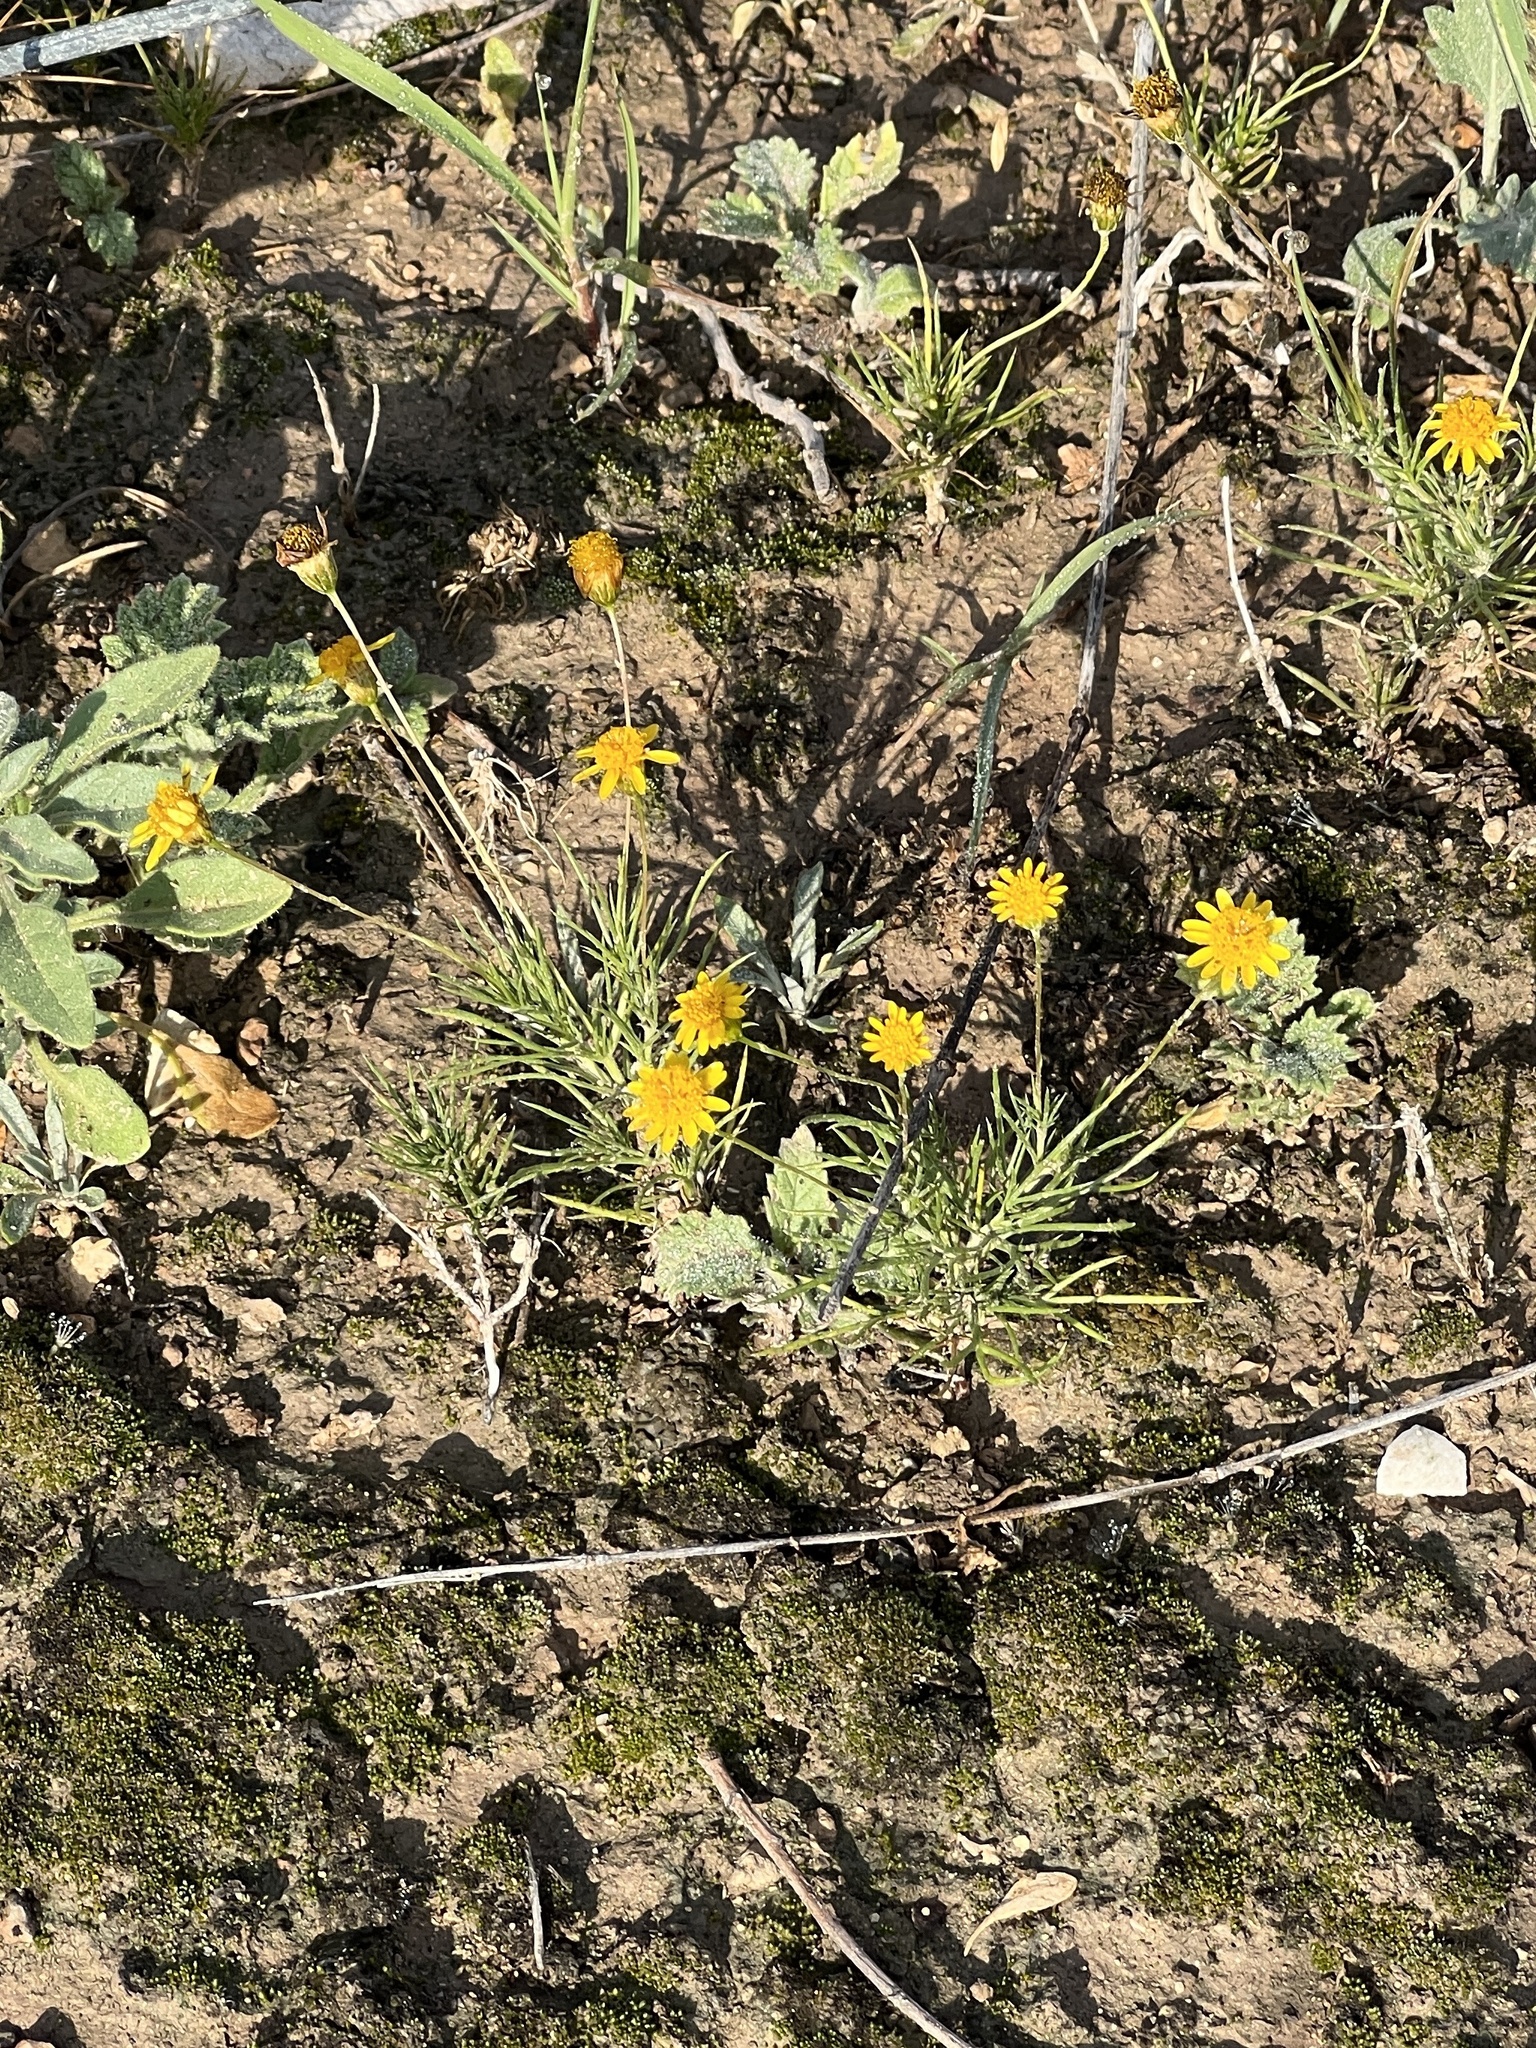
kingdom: Plantae
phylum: Tracheophyta
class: Magnoliopsida
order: Asterales
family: Asteraceae
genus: Thymophylla
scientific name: Thymophylla pentachaeta
